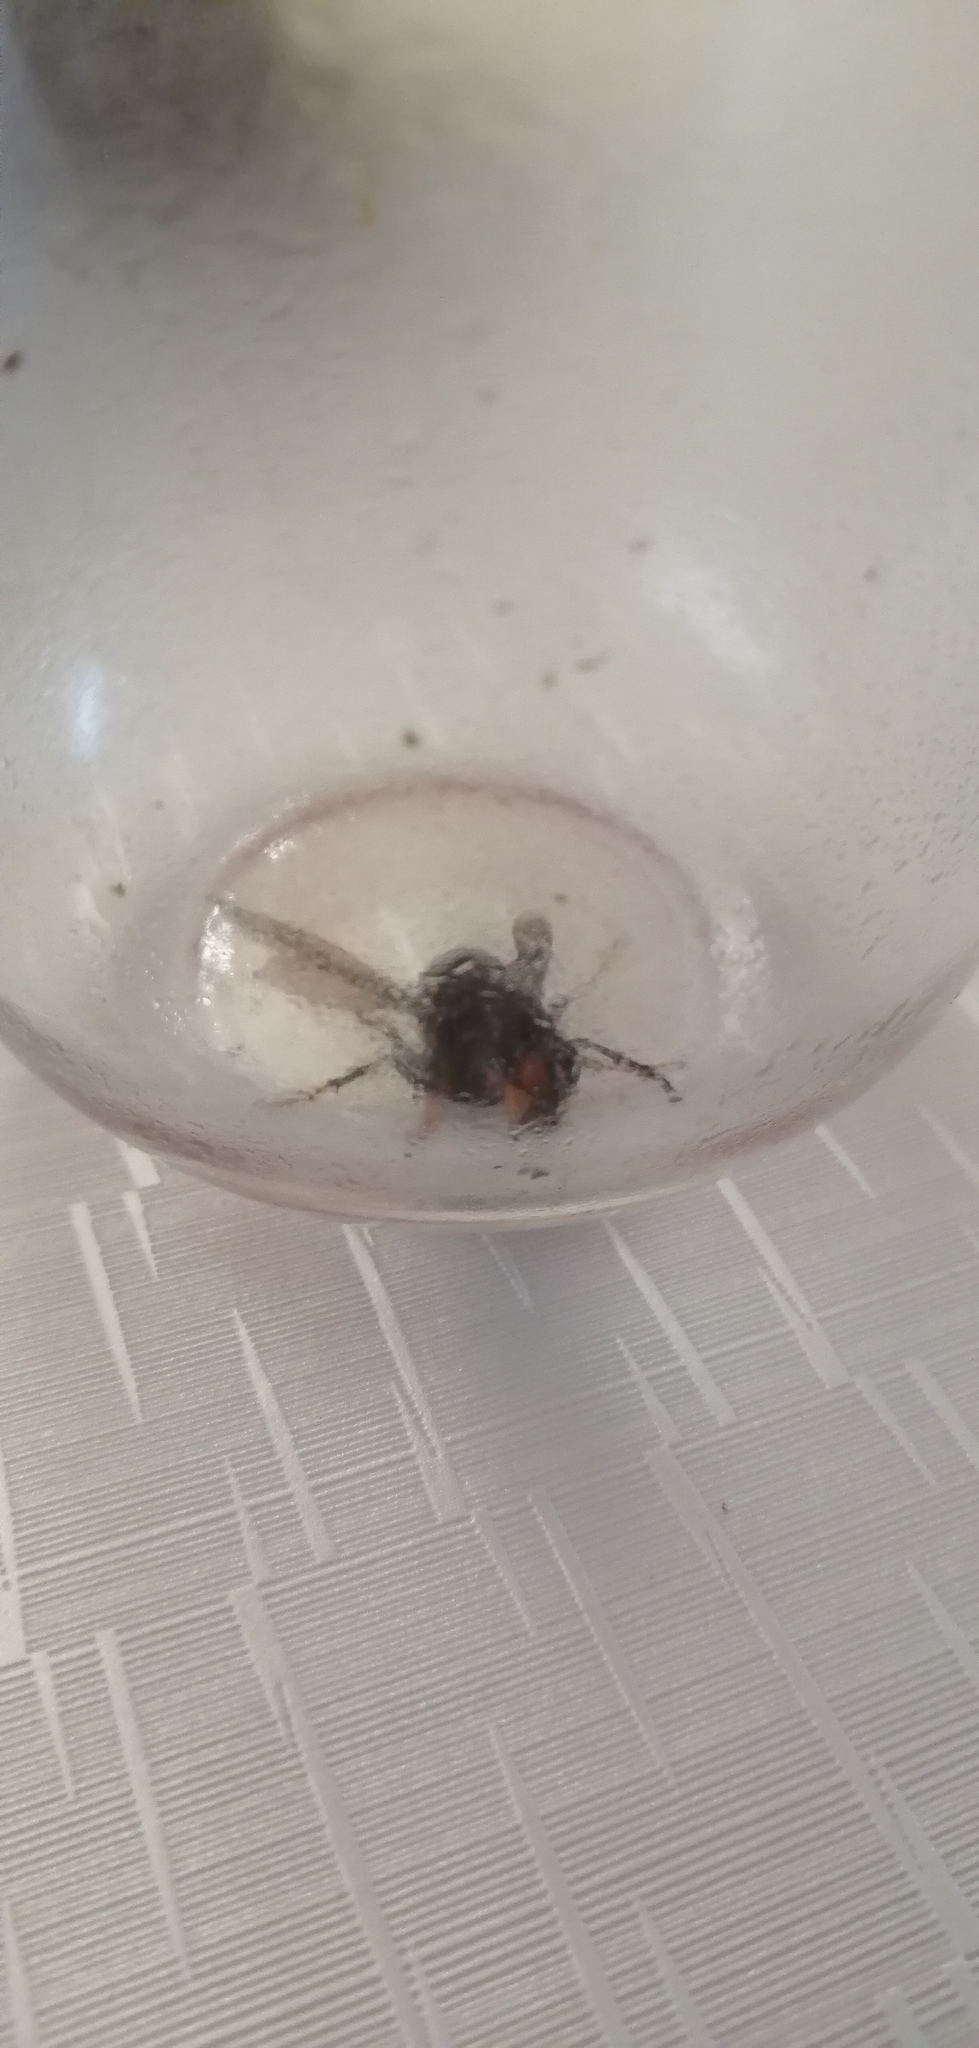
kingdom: Animalia
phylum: Arthropoda
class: Insecta
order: Hymenoptera
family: Vespidae
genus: Vespa
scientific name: Vespa velutina
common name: Asian hornet
